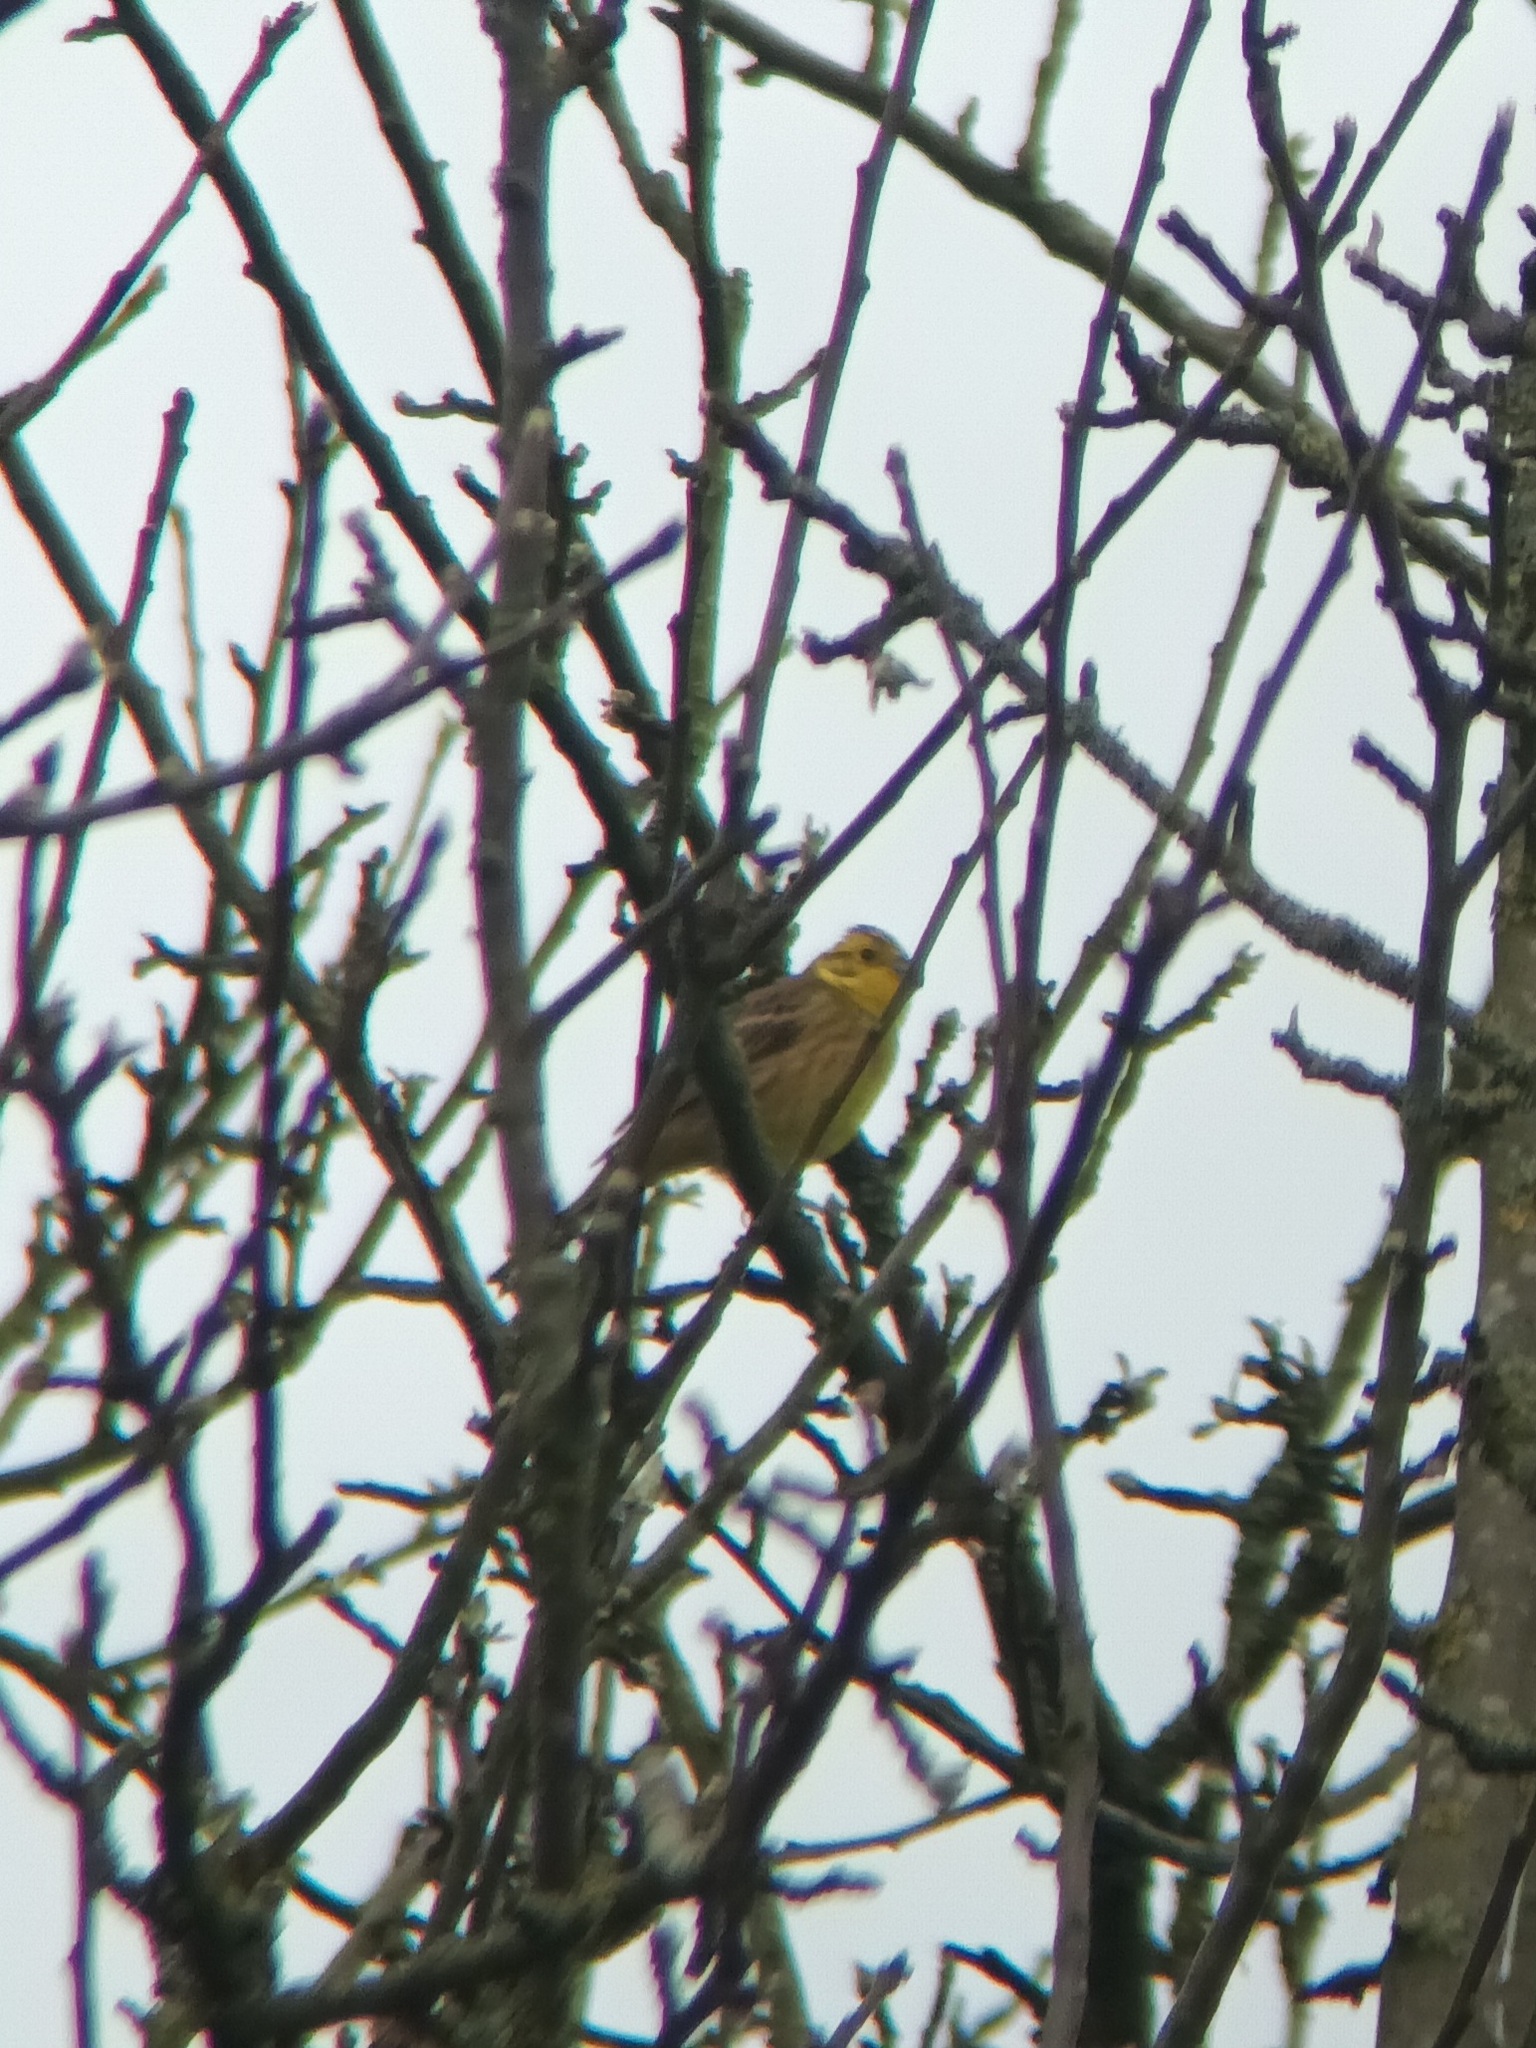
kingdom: Animalia
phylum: Chordata
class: Aves
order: Passeriformes
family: Emberizidae
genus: Emberiza
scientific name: Emberiza citrinella
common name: Yellowhammer
